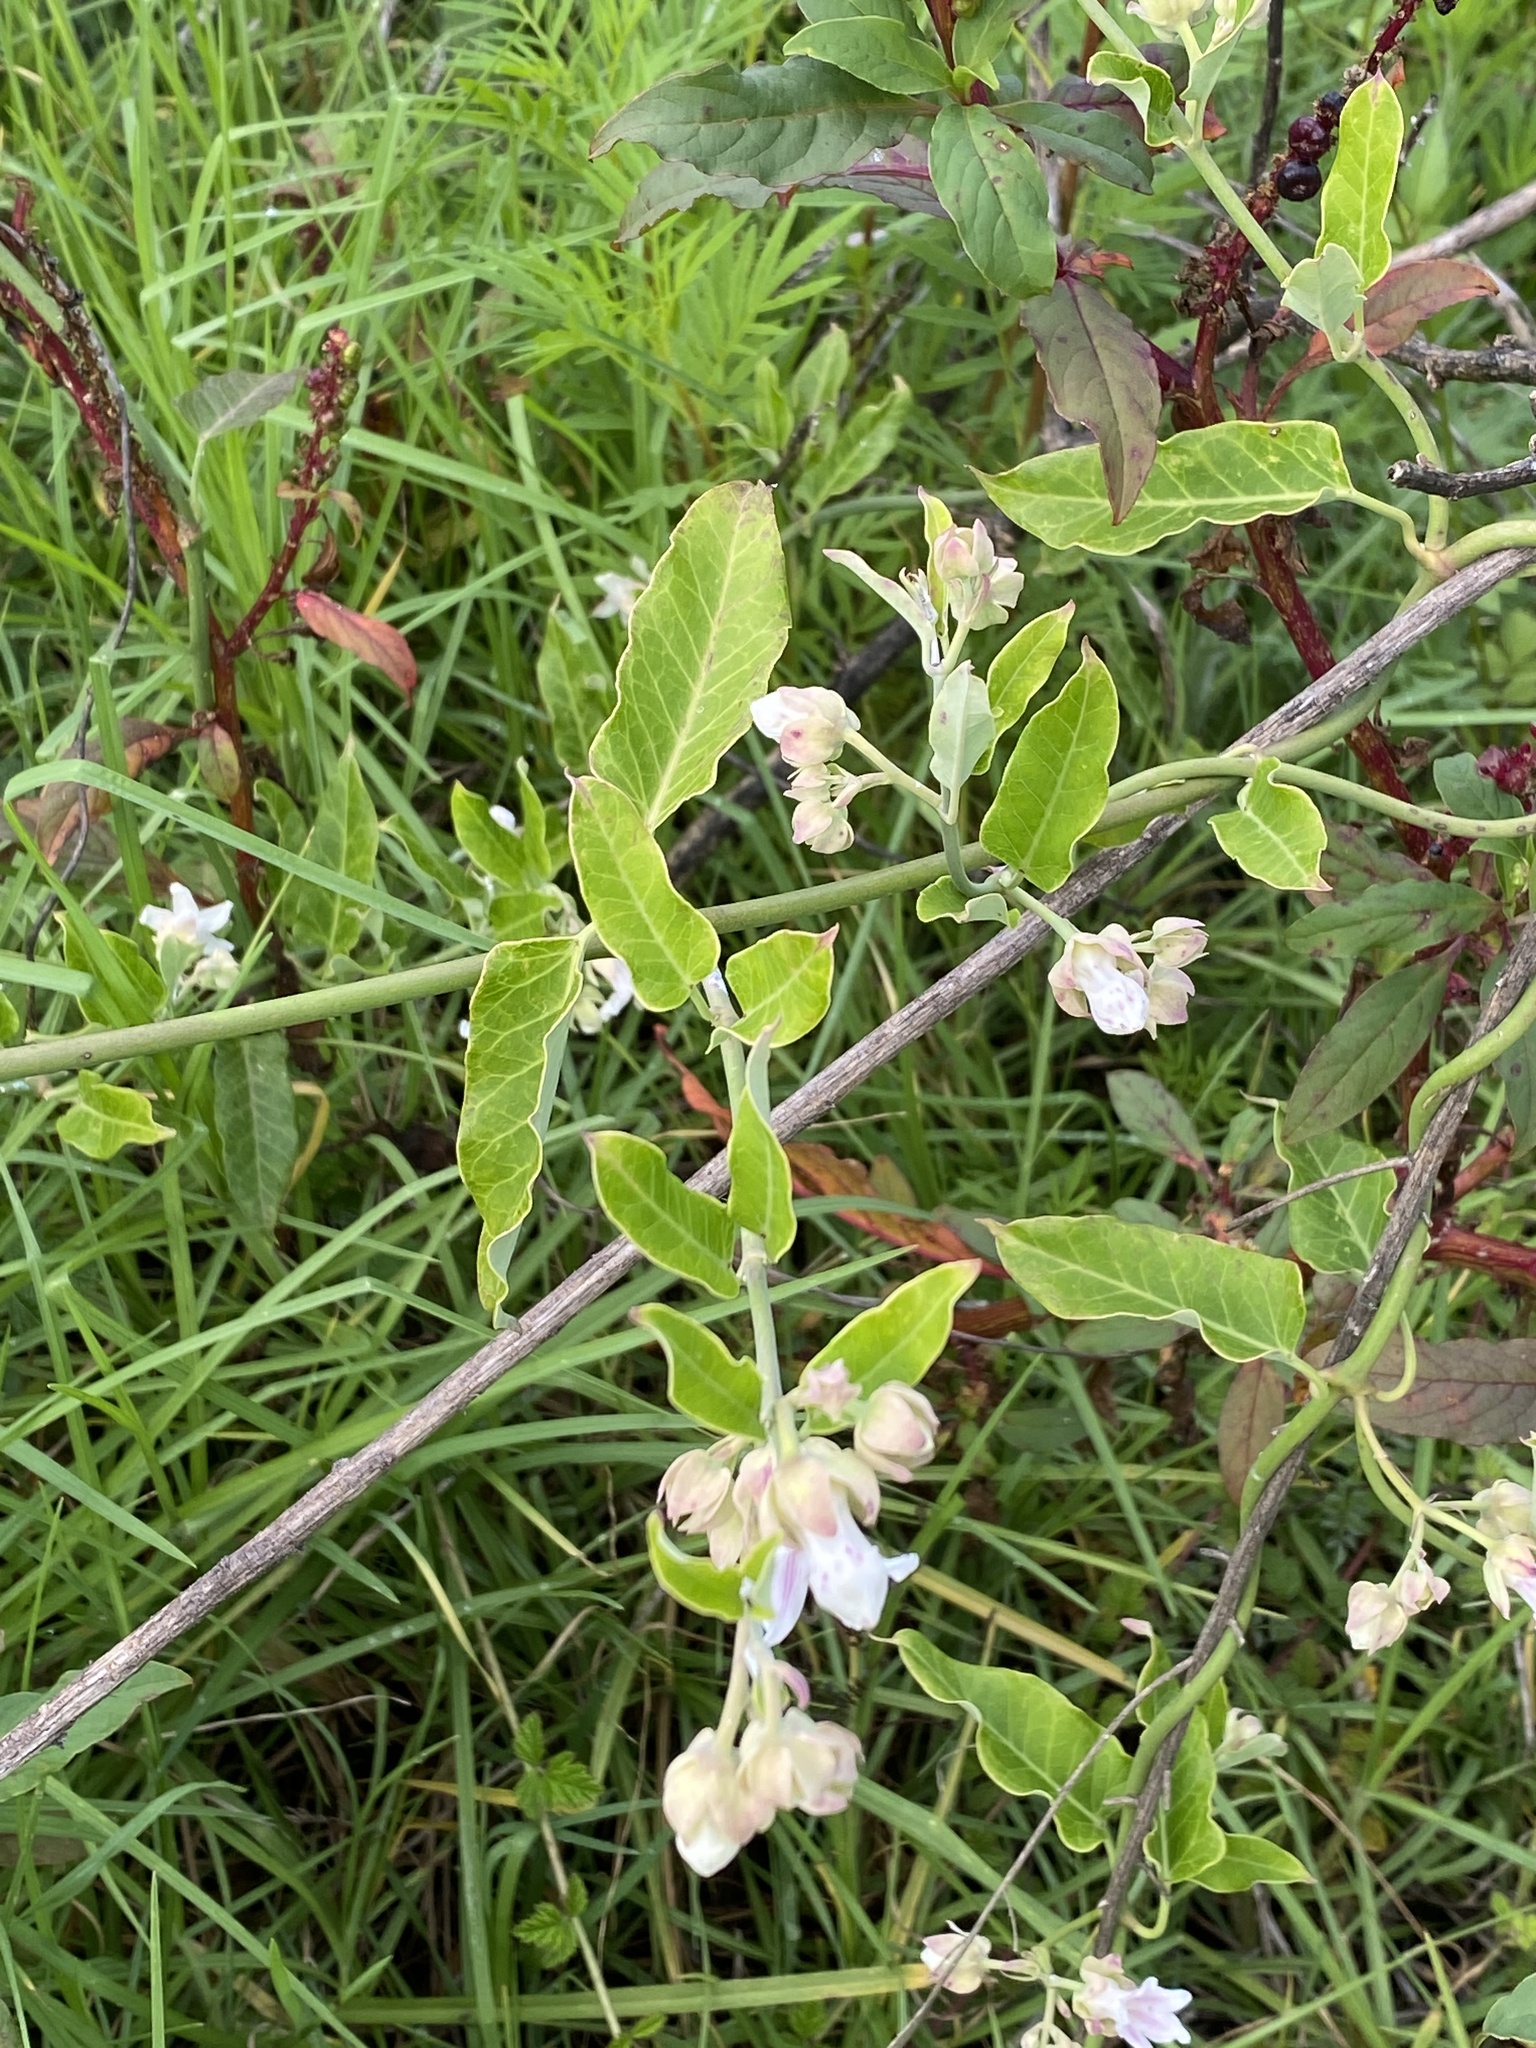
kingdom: Plantae
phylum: Tracheophyta
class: Magnoliopsida
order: Gentianales
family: Apocynaceae
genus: Araujia
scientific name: Araujia sericifera
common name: White bladderflower
